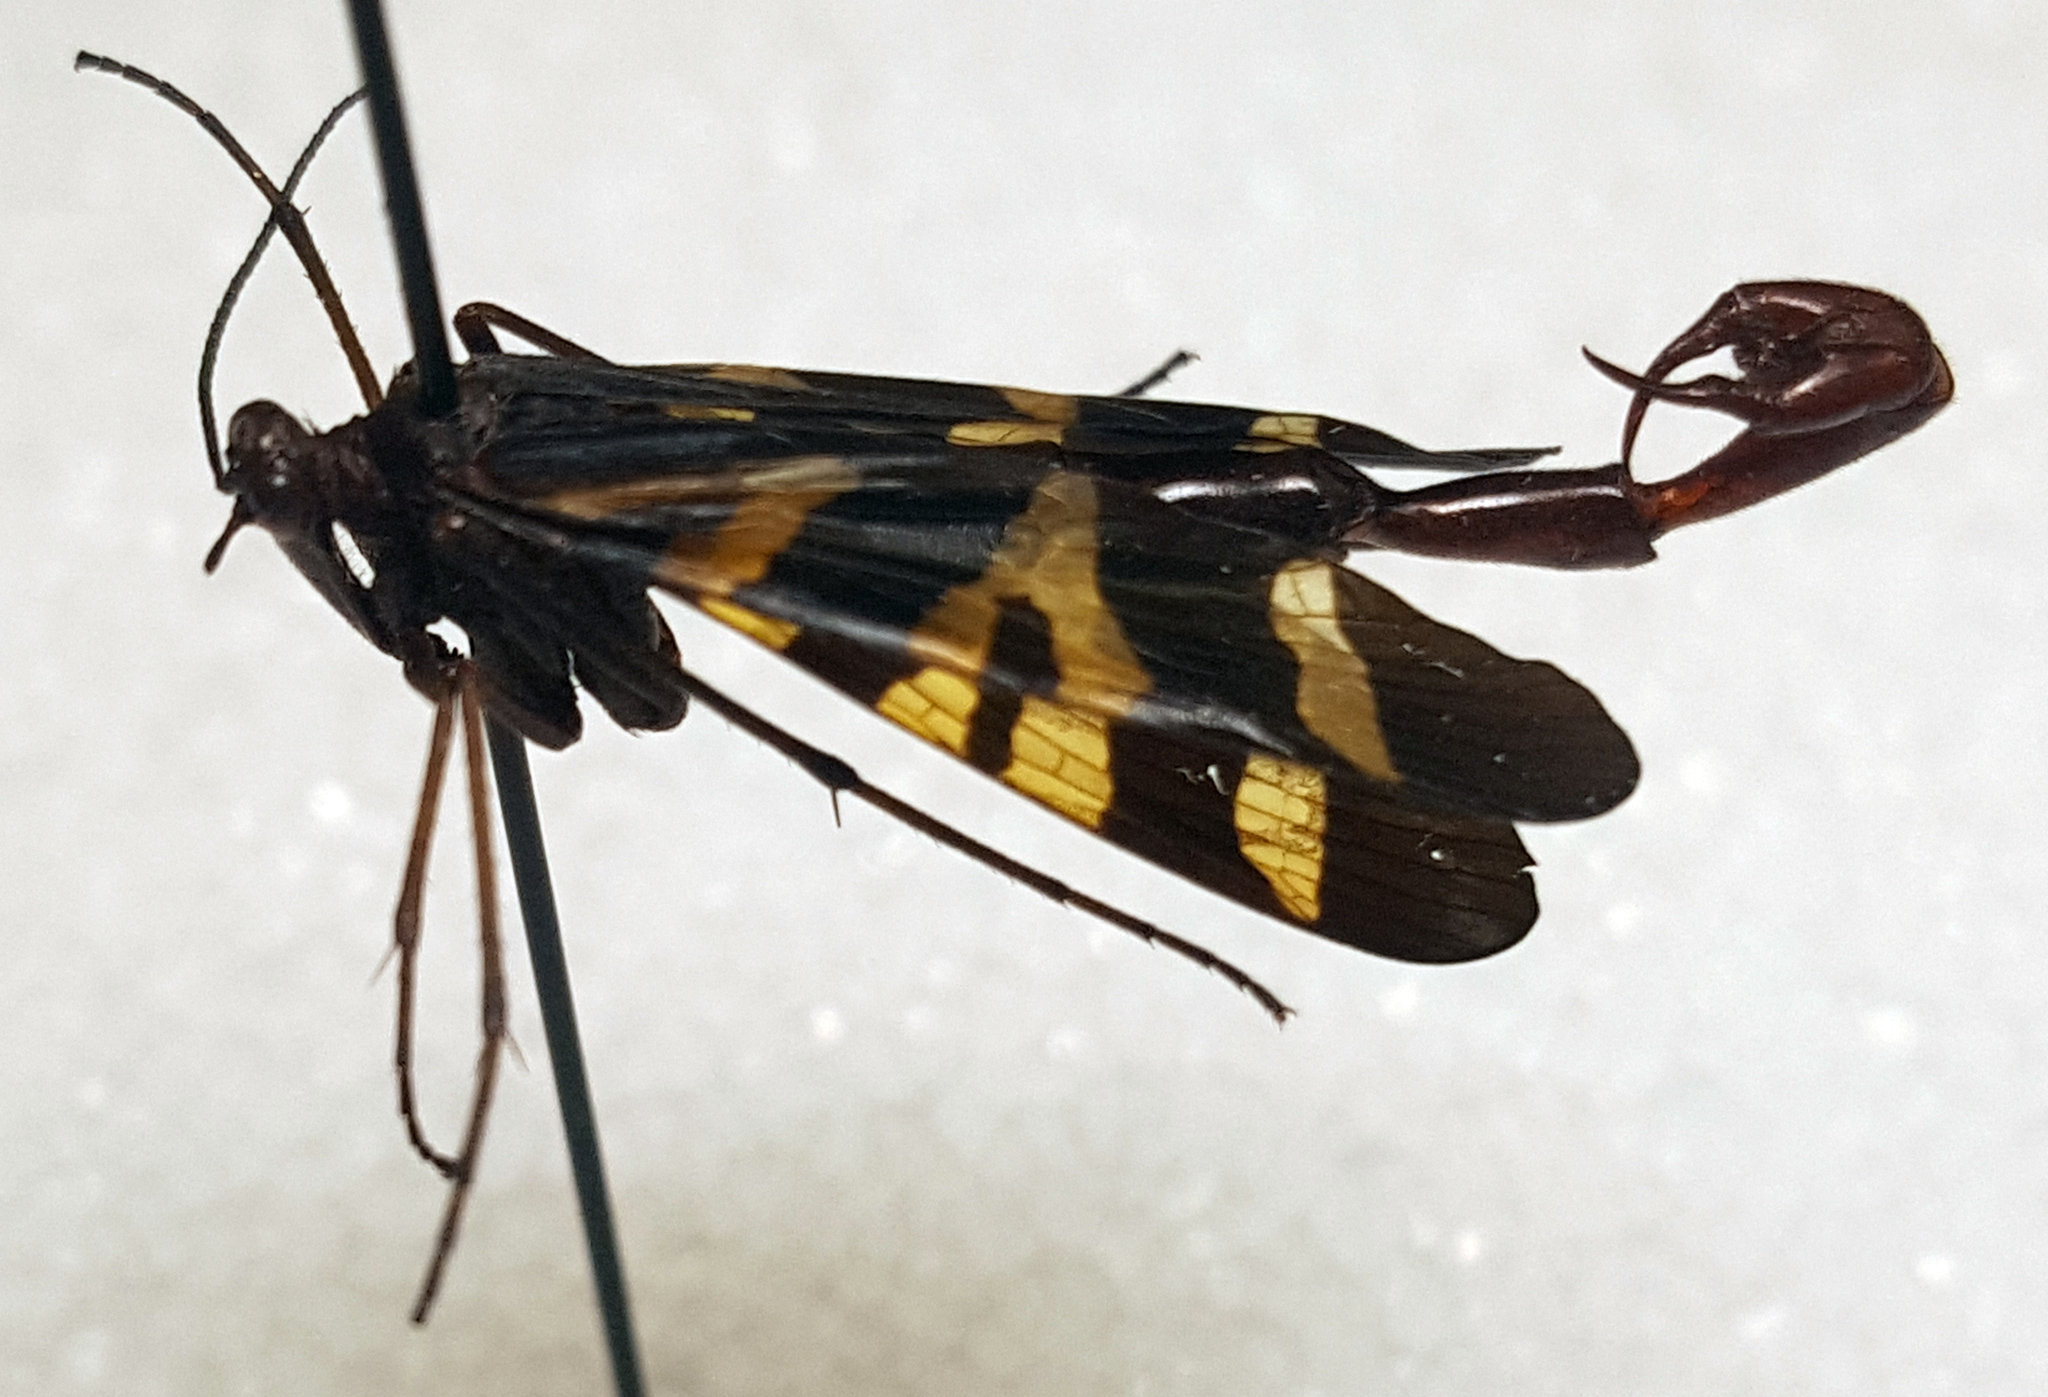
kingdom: Animalia
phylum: Arthropoda
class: Insecta
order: Mecoptera
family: Panorpidae
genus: Panorpa
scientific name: Panorpa nuptialis
